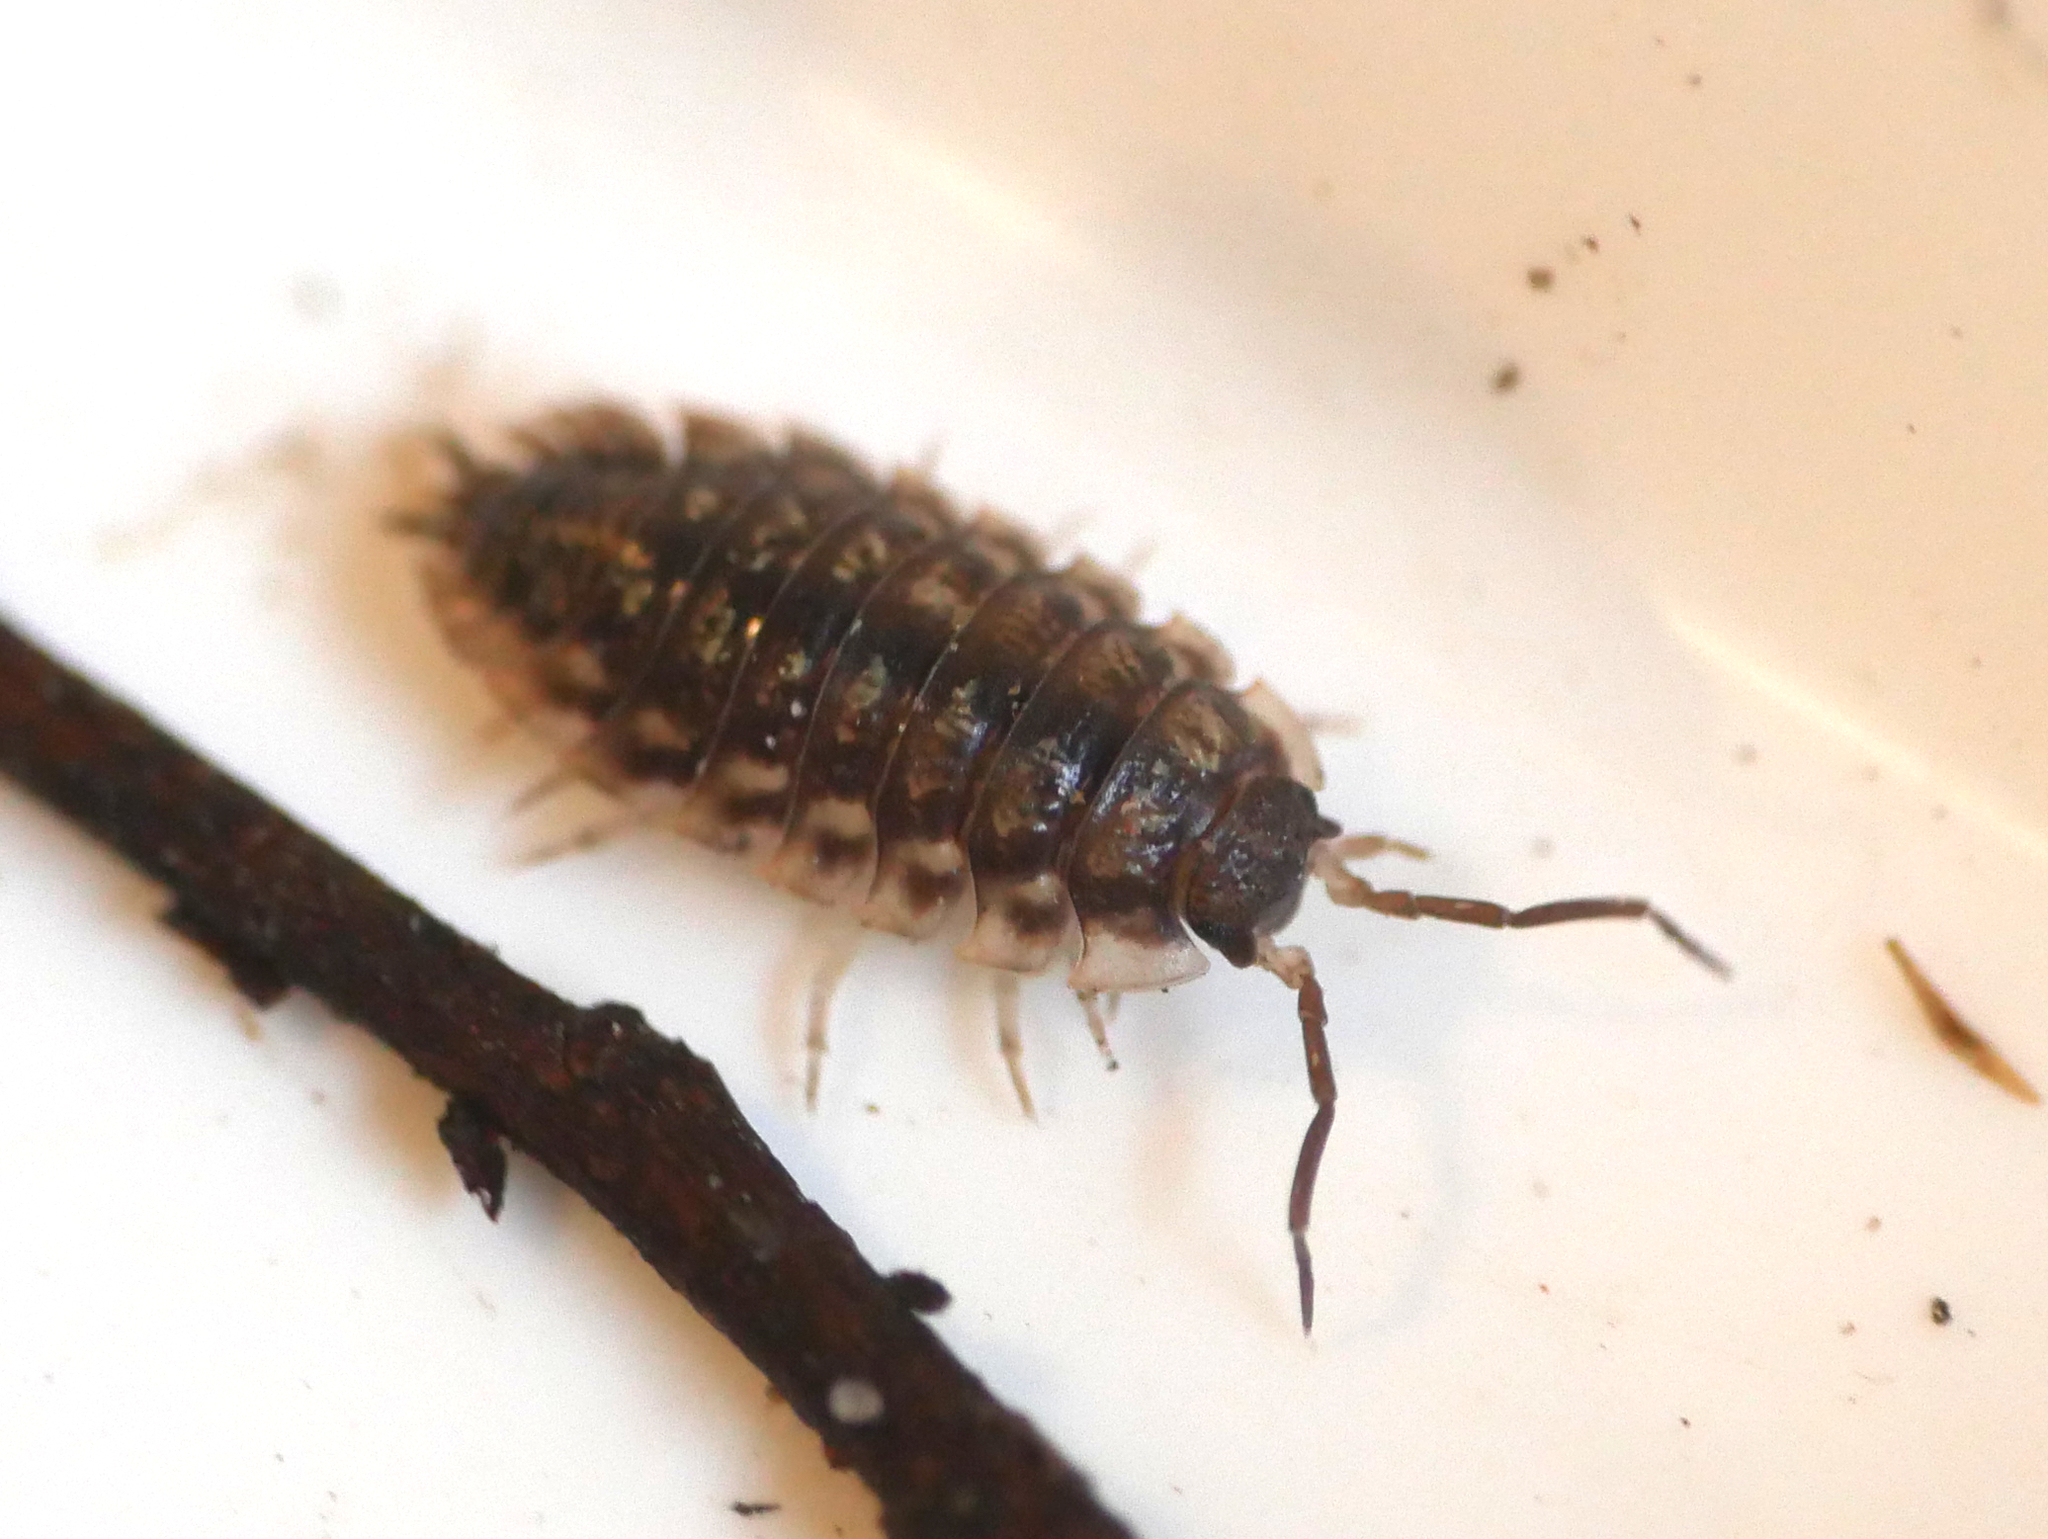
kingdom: Animalia
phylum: Arthropoda
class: Malacostraca
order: Isopoda
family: Oniscidae
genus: Oniscus
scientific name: Oniscus asellus
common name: Common shiny woodlouse
